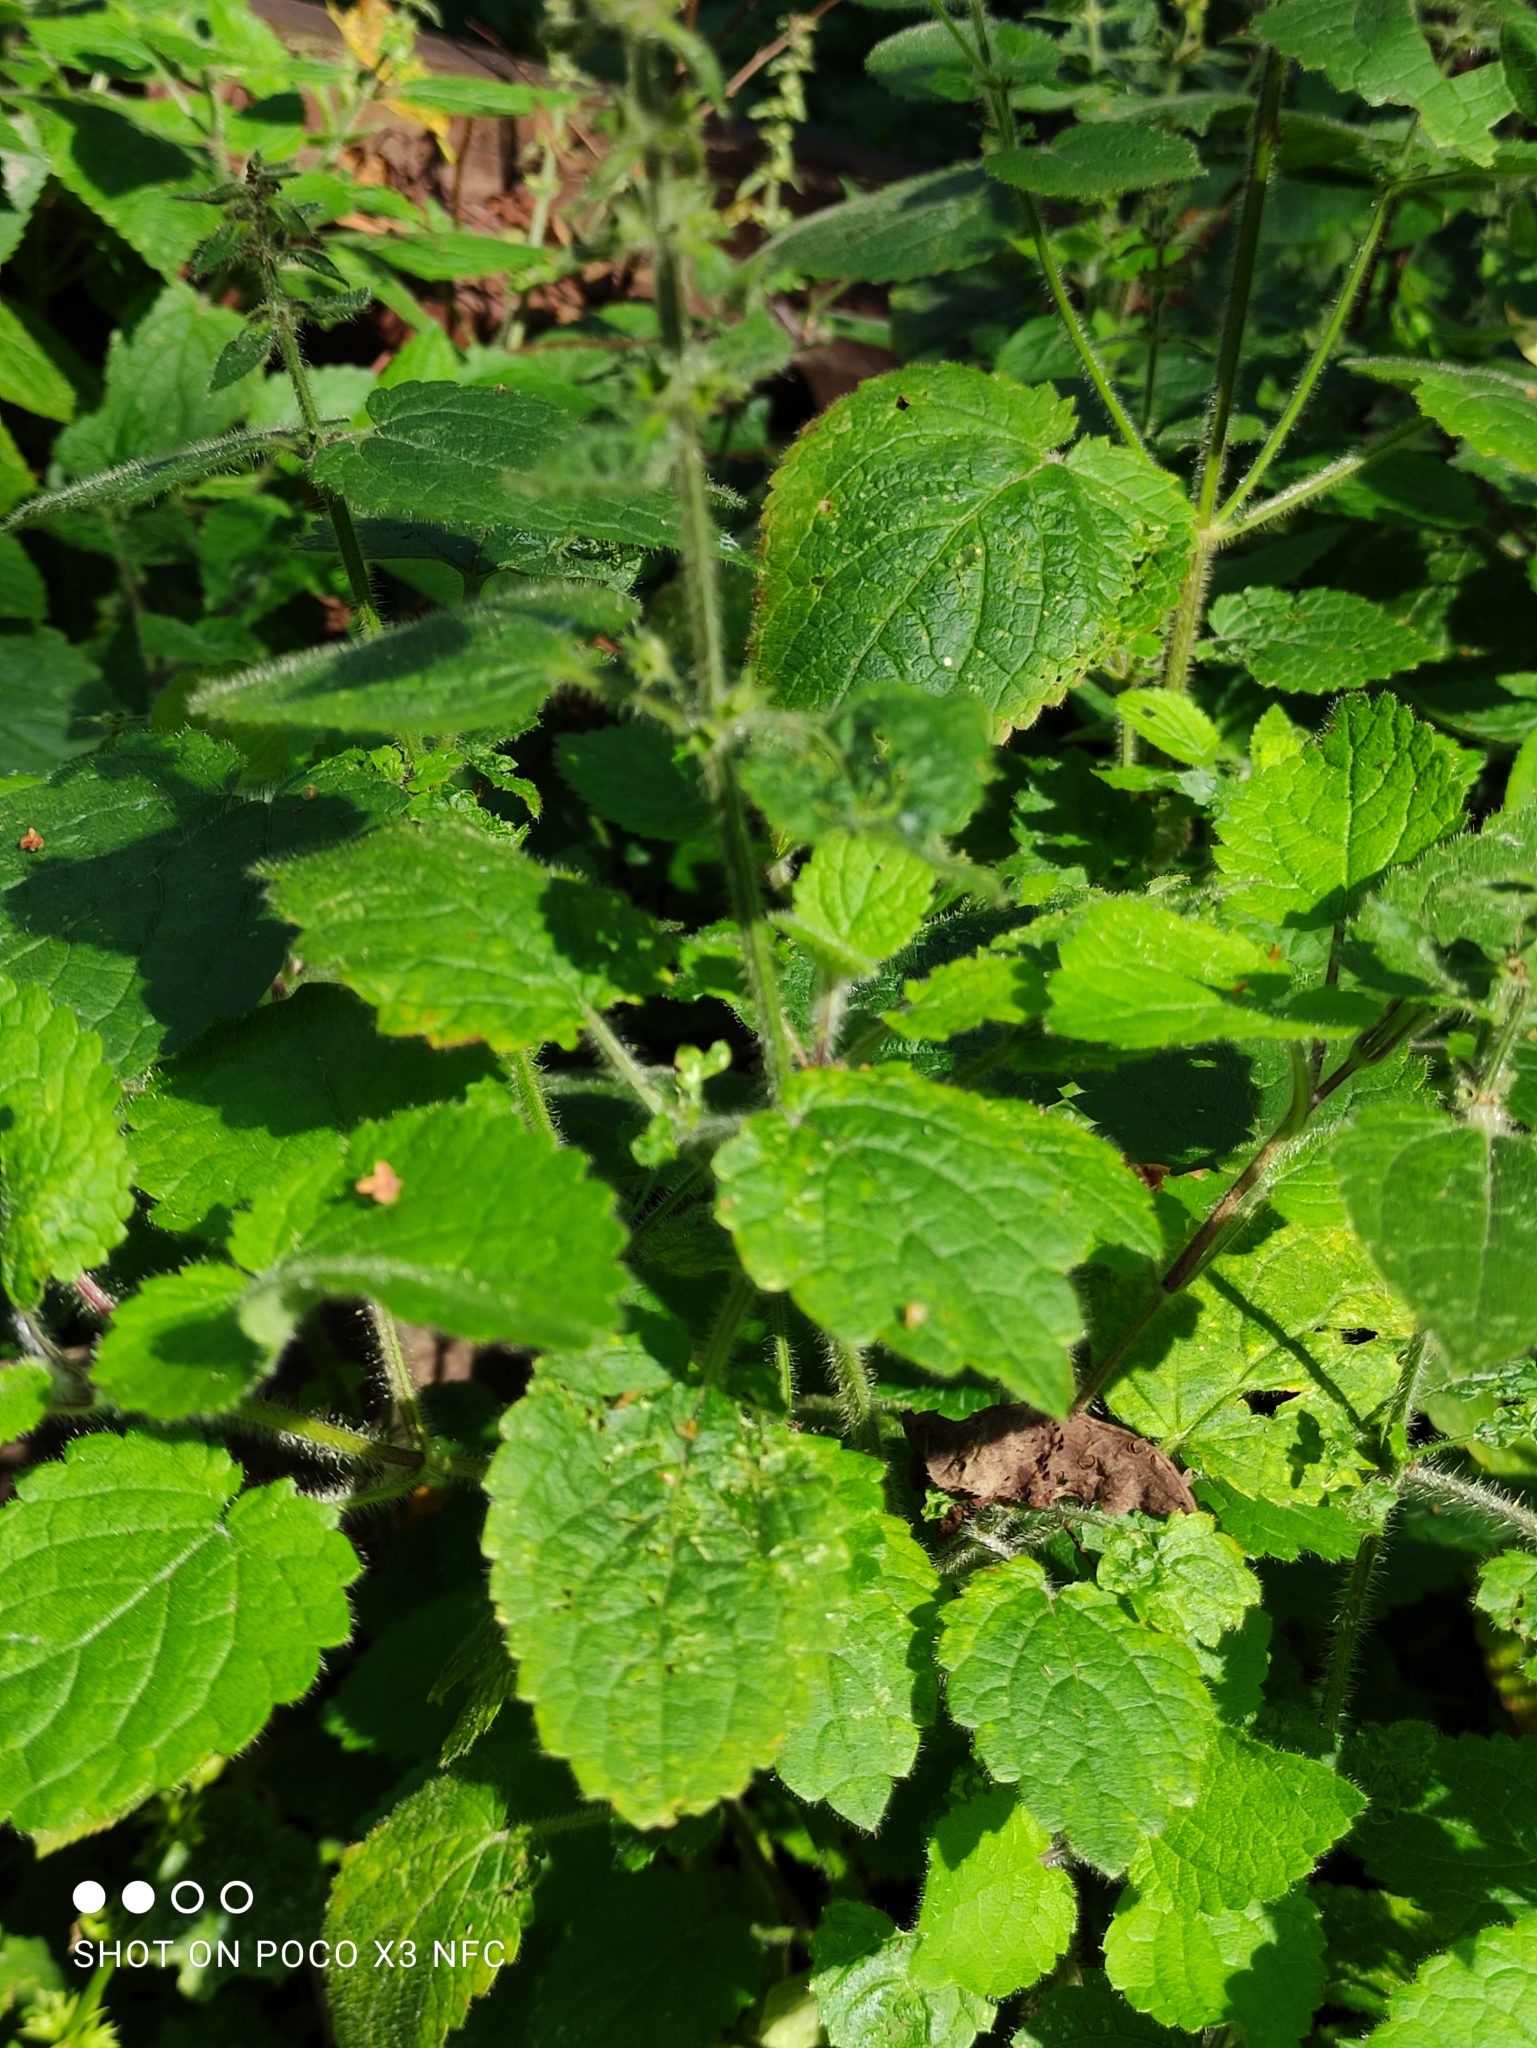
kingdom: Plantae
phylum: Tracheophyta
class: Magnoliopsida
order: Lamiales
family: Lamiaceae
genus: Stachys
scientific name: Stachys sylvatica
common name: Hedge woundwort
